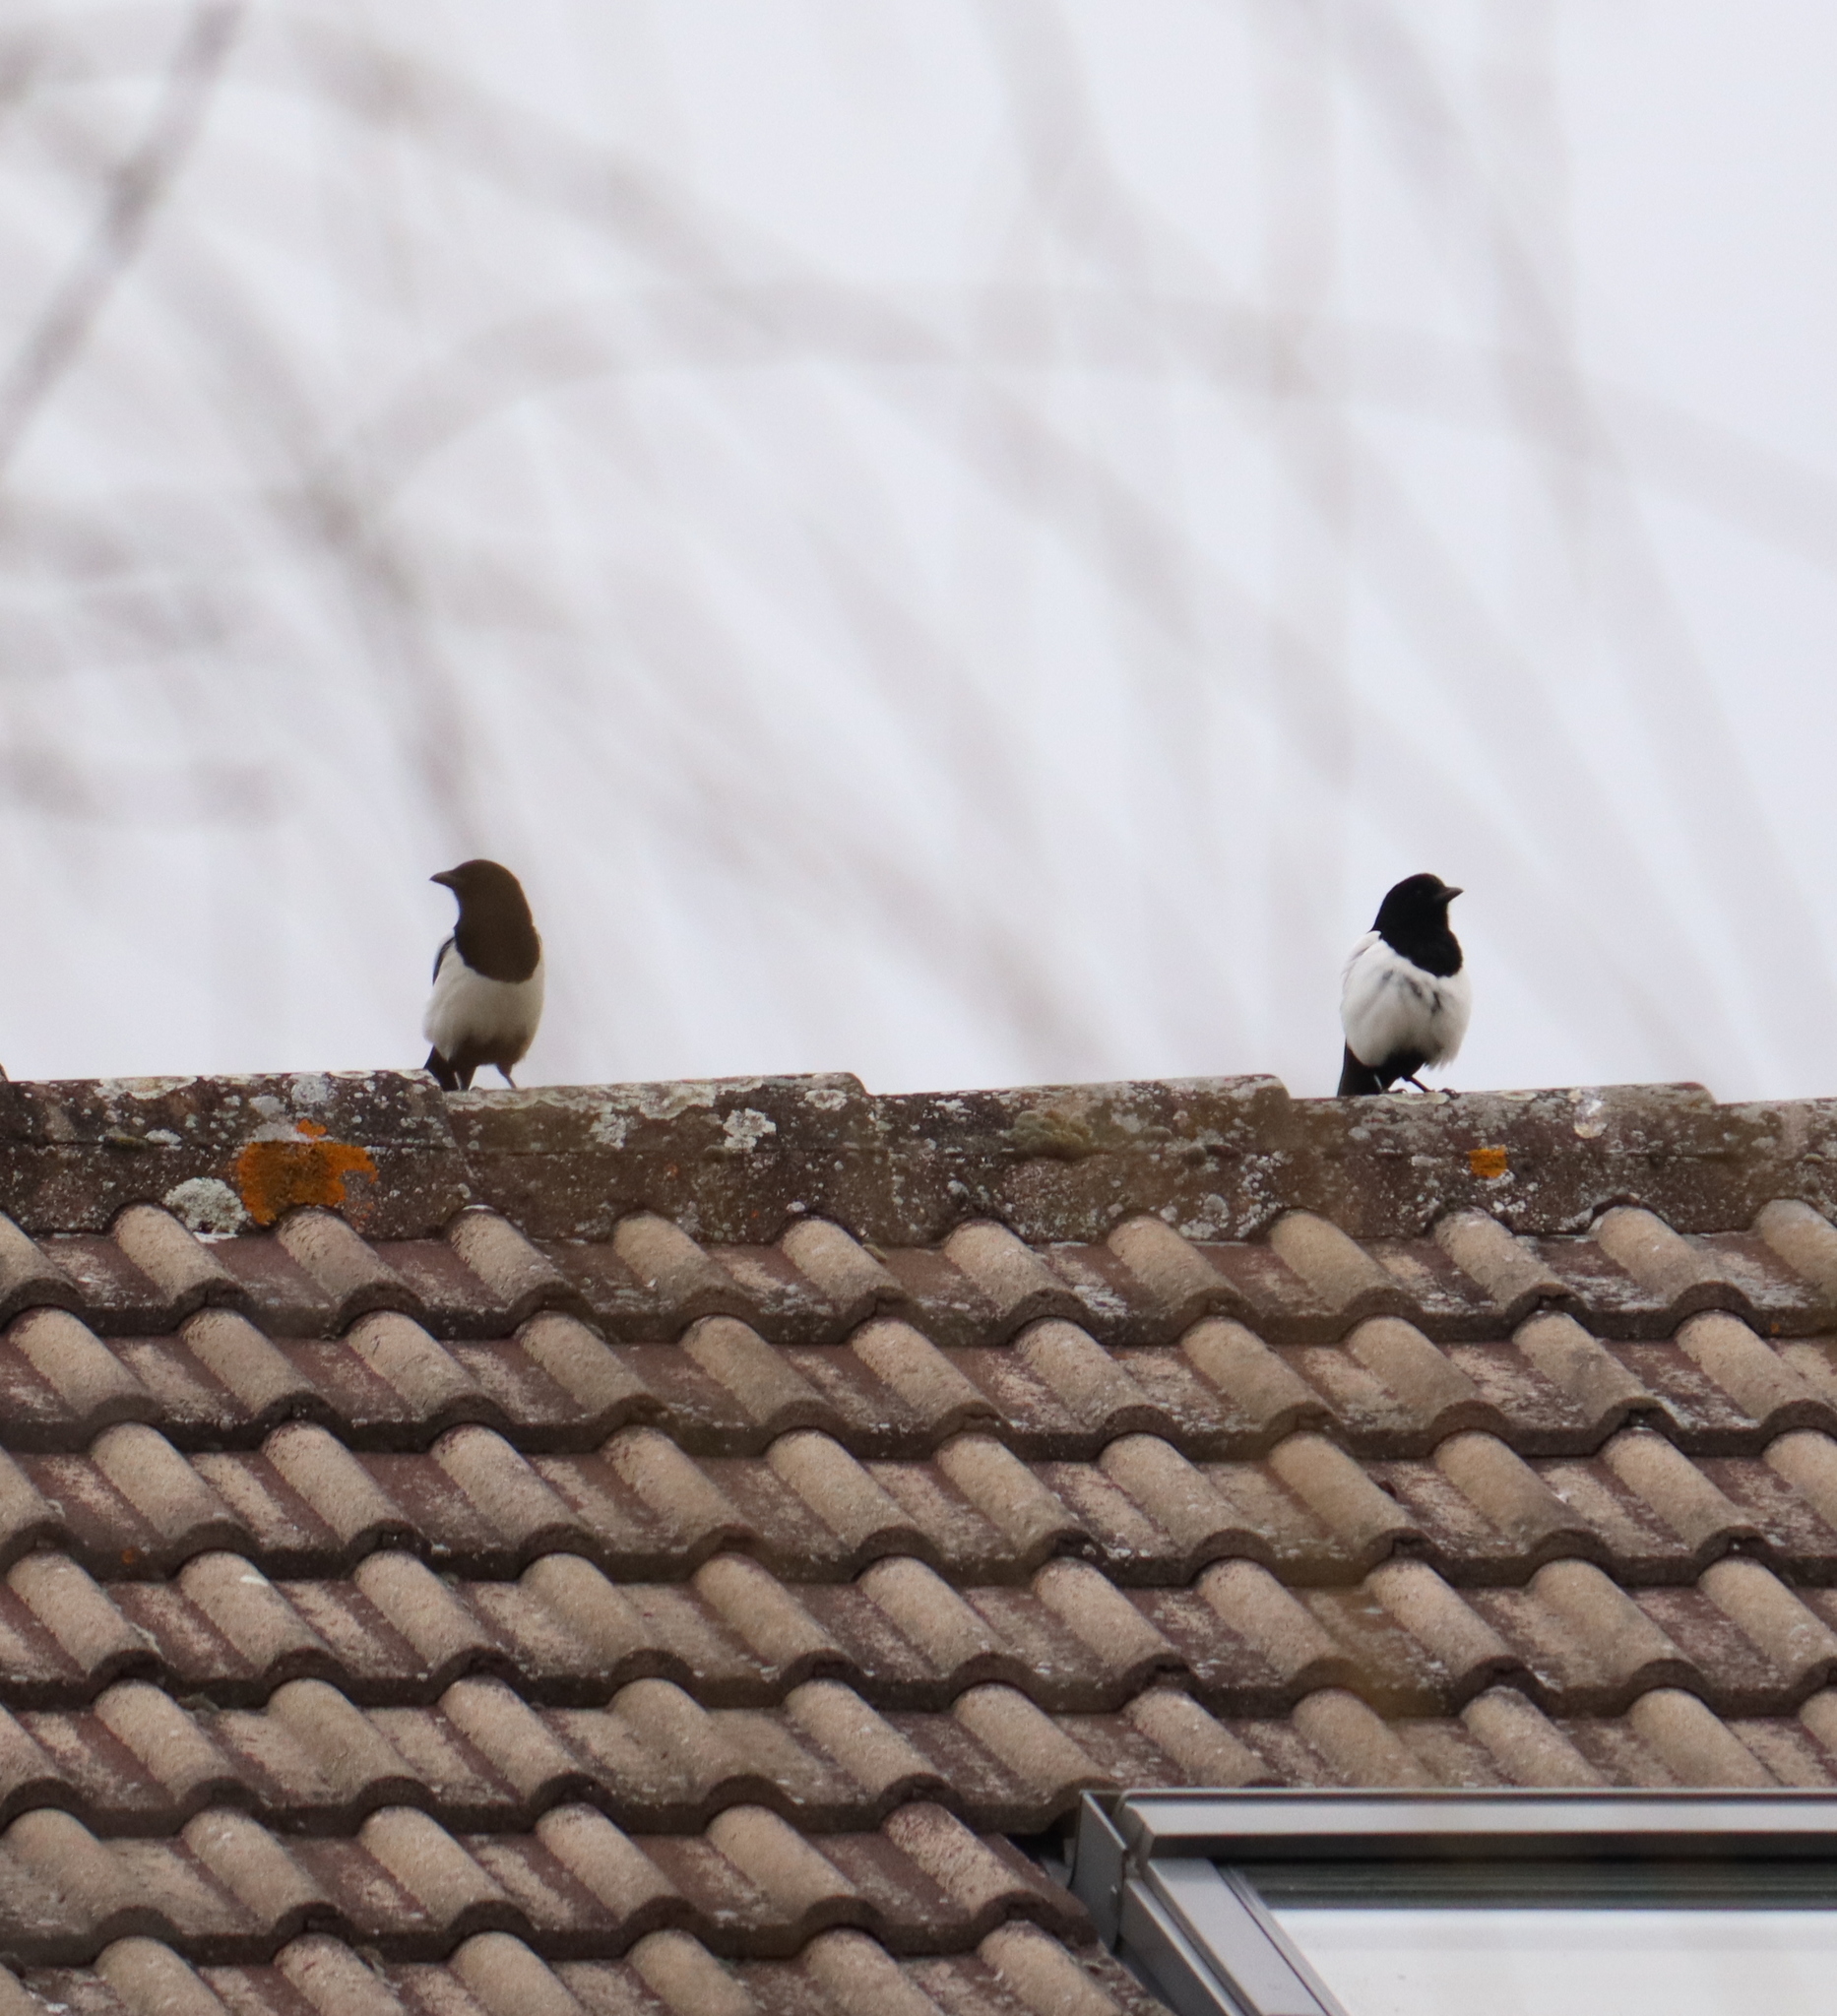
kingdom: Animalia
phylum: Chordata
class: Aves
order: Passeriformes
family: Corvidae
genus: Pica
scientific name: Pica pica
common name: Eurasian magpie
